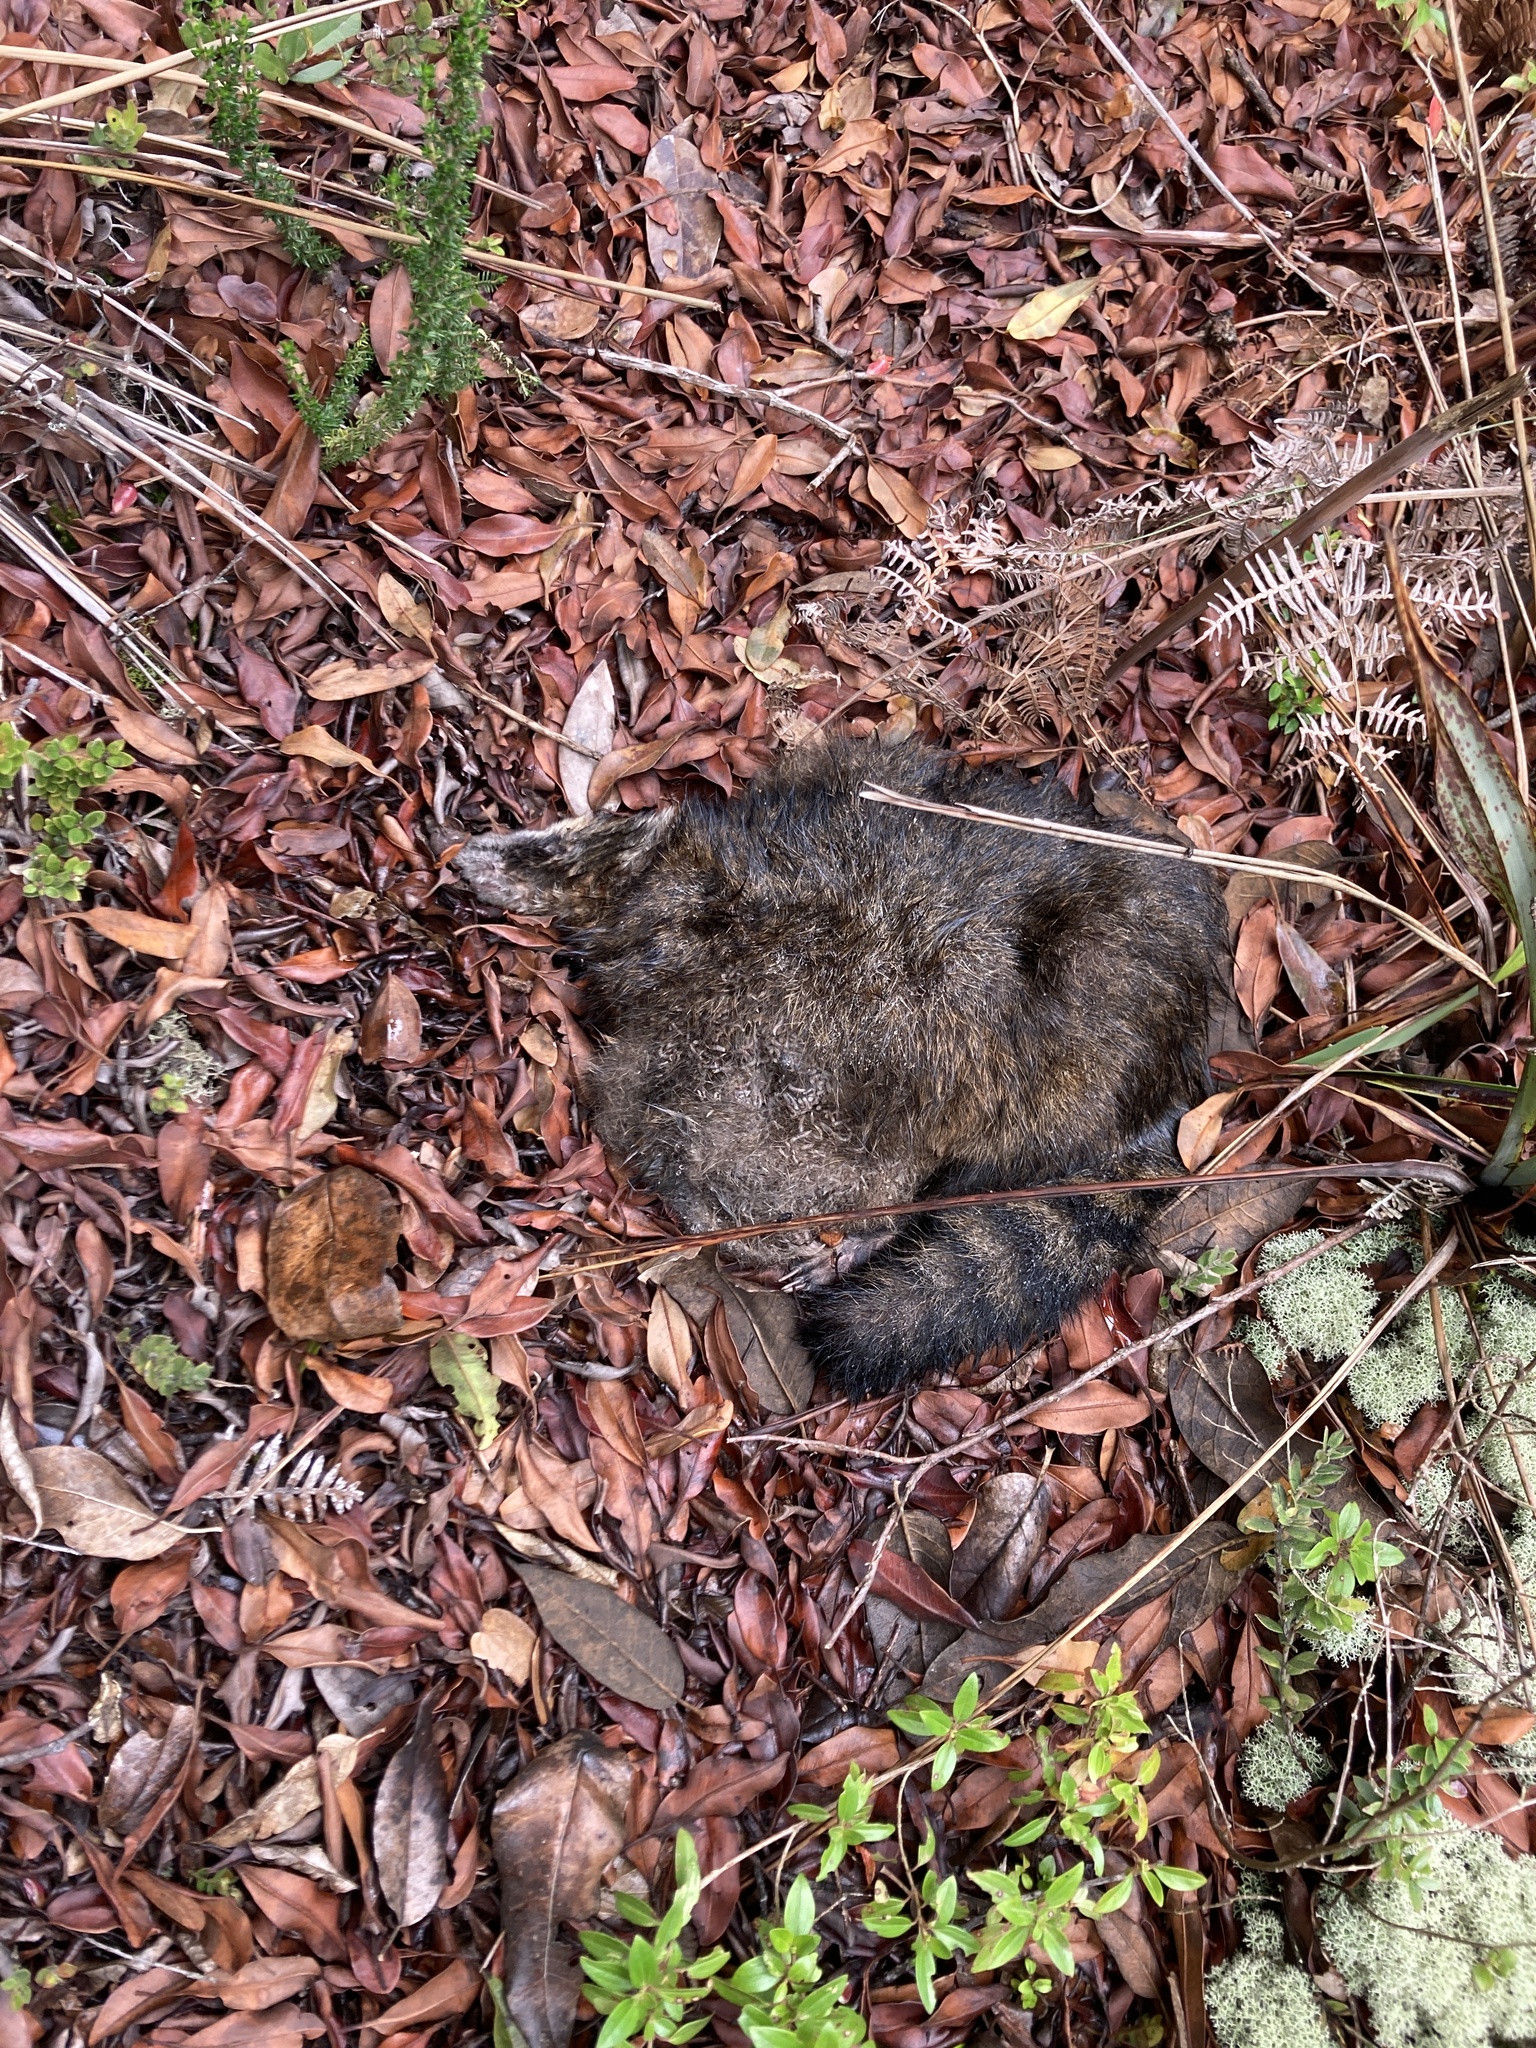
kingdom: Animalia
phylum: Chordata
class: Mammalia
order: Carnivora
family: Procyonidae
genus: Nasua
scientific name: Nasua olivacea
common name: Mountain coati
